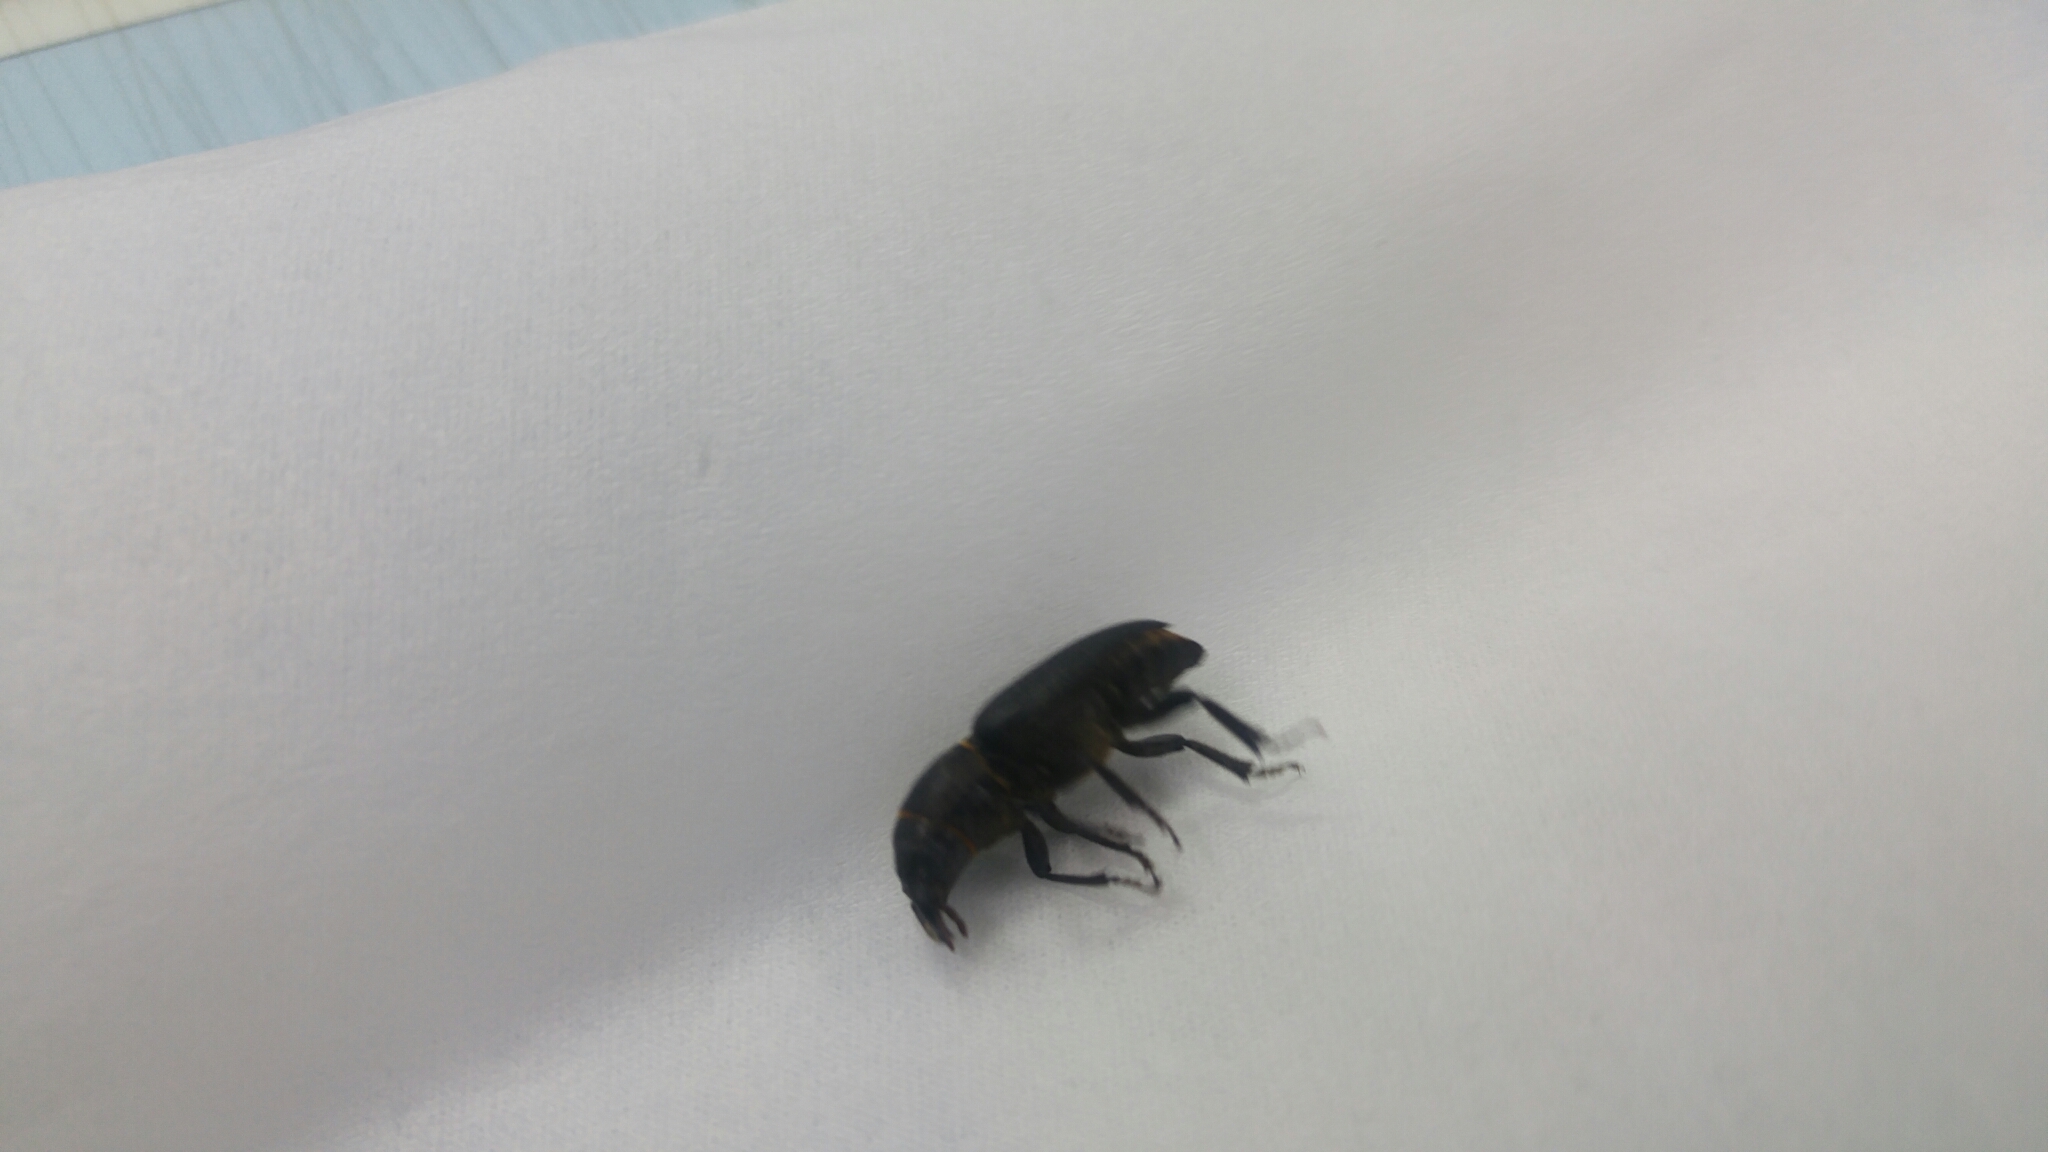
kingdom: Animalia
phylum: Arthropoda
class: Insecta
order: Coleoptera
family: Cerambycidae
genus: Spondylis
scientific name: Spondylis buprestoides
